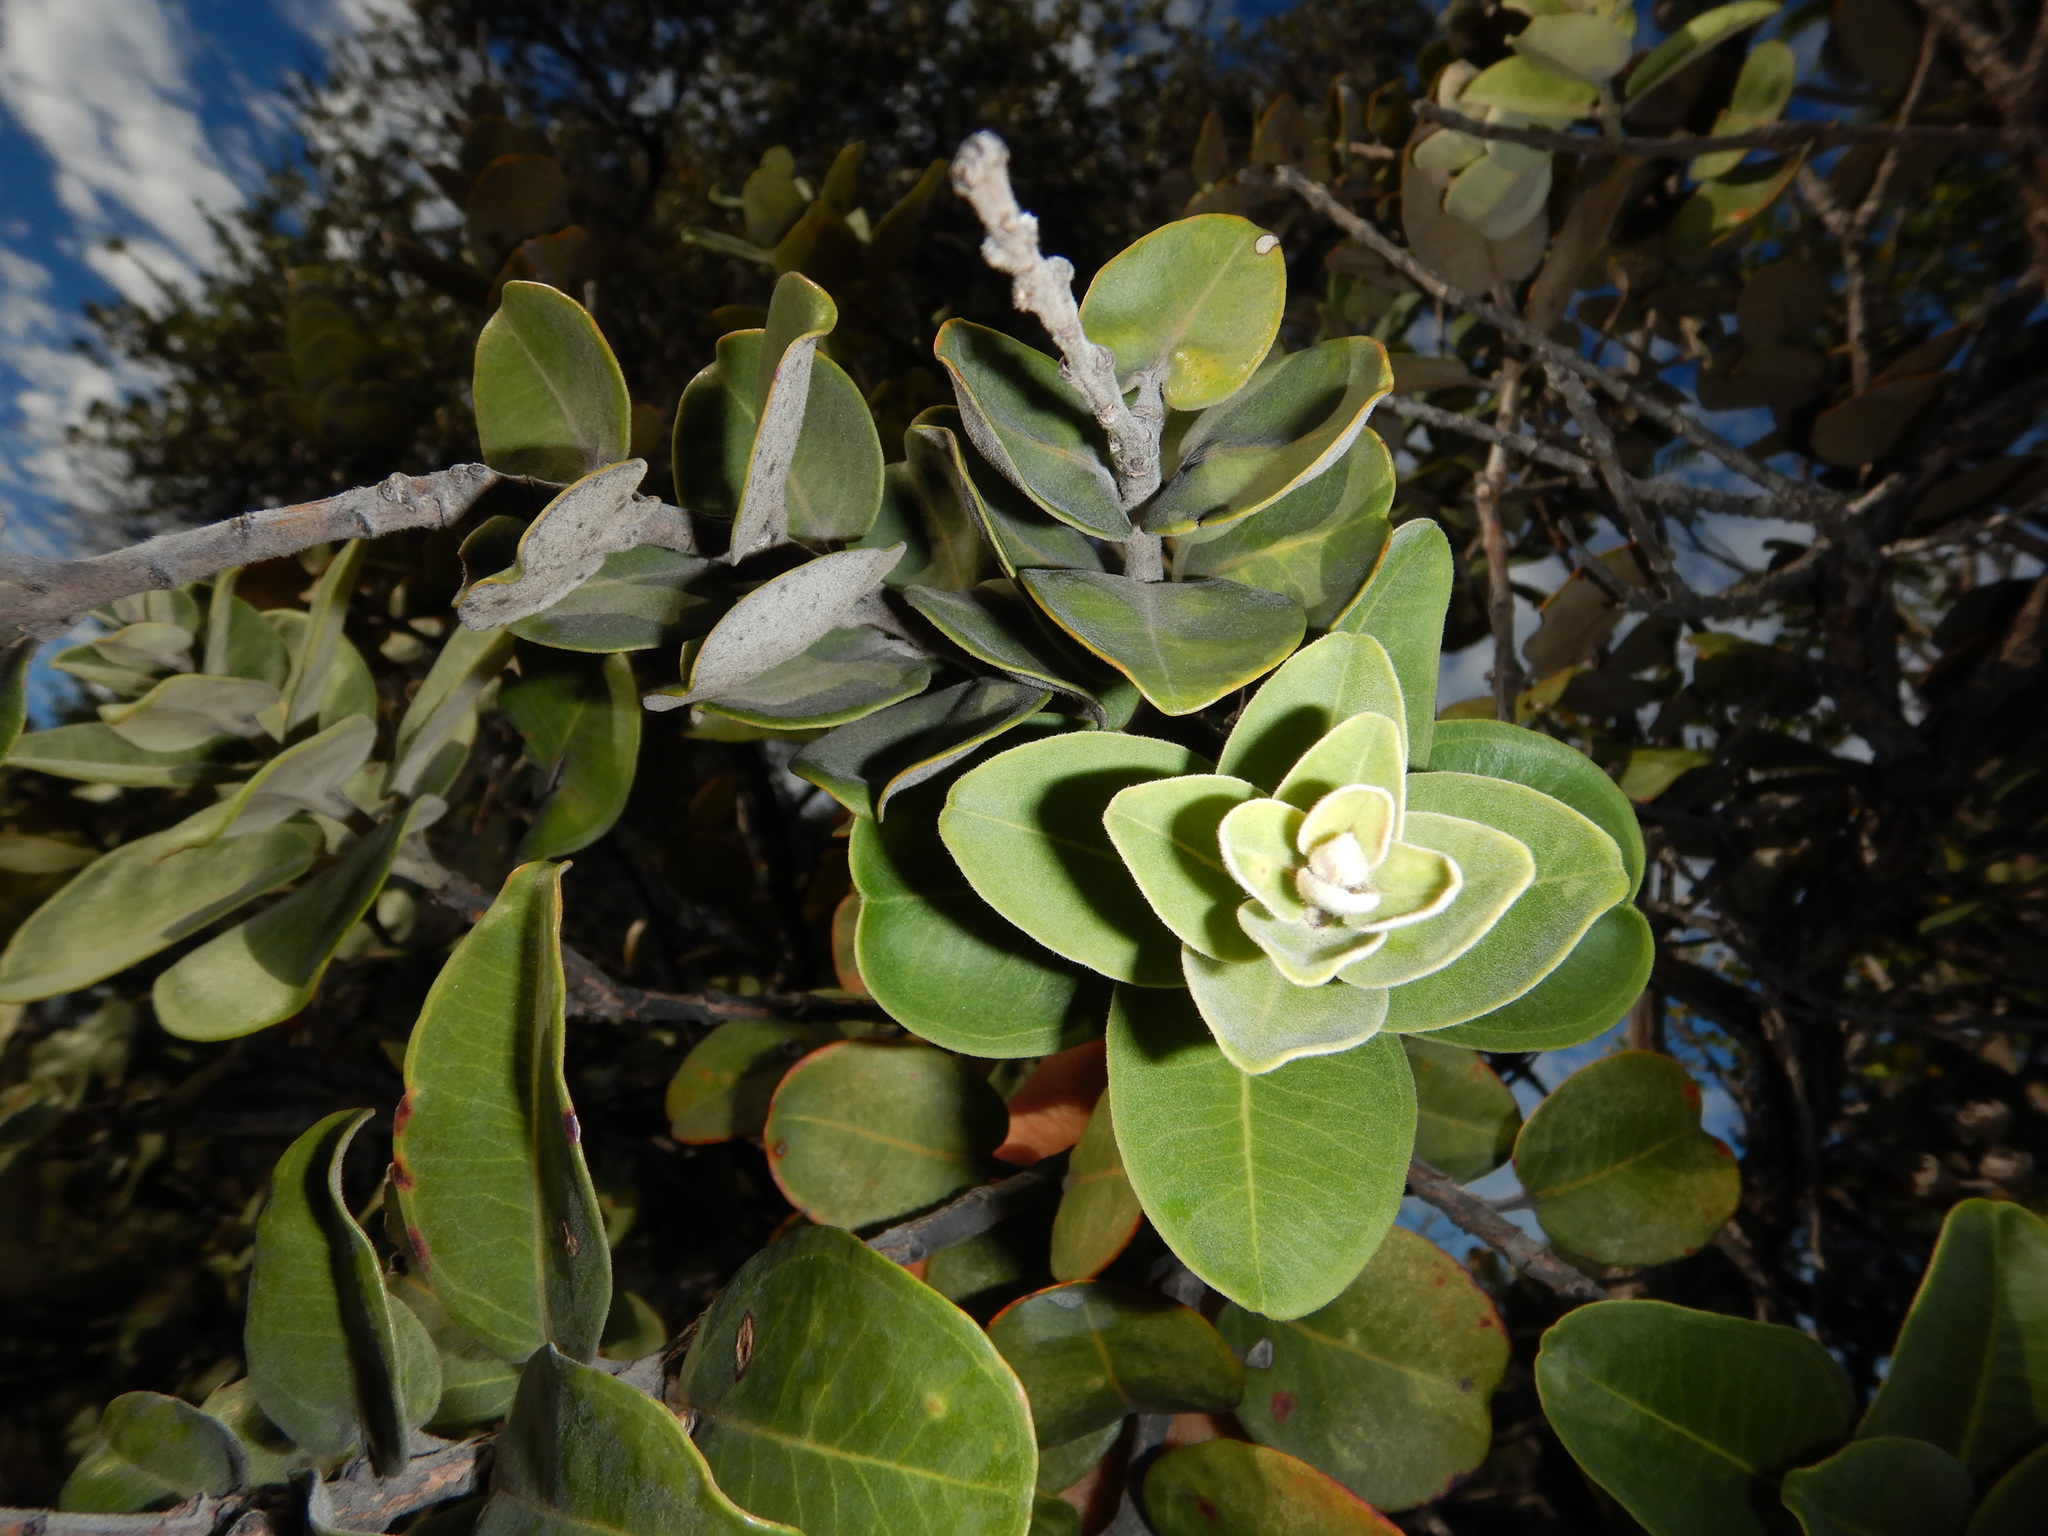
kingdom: Plantae
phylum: Tracheophyta
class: Magnoliopsida
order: Myrtales
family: Myrtaceae
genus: Metrosideros
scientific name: Metrosideros polymorpha
